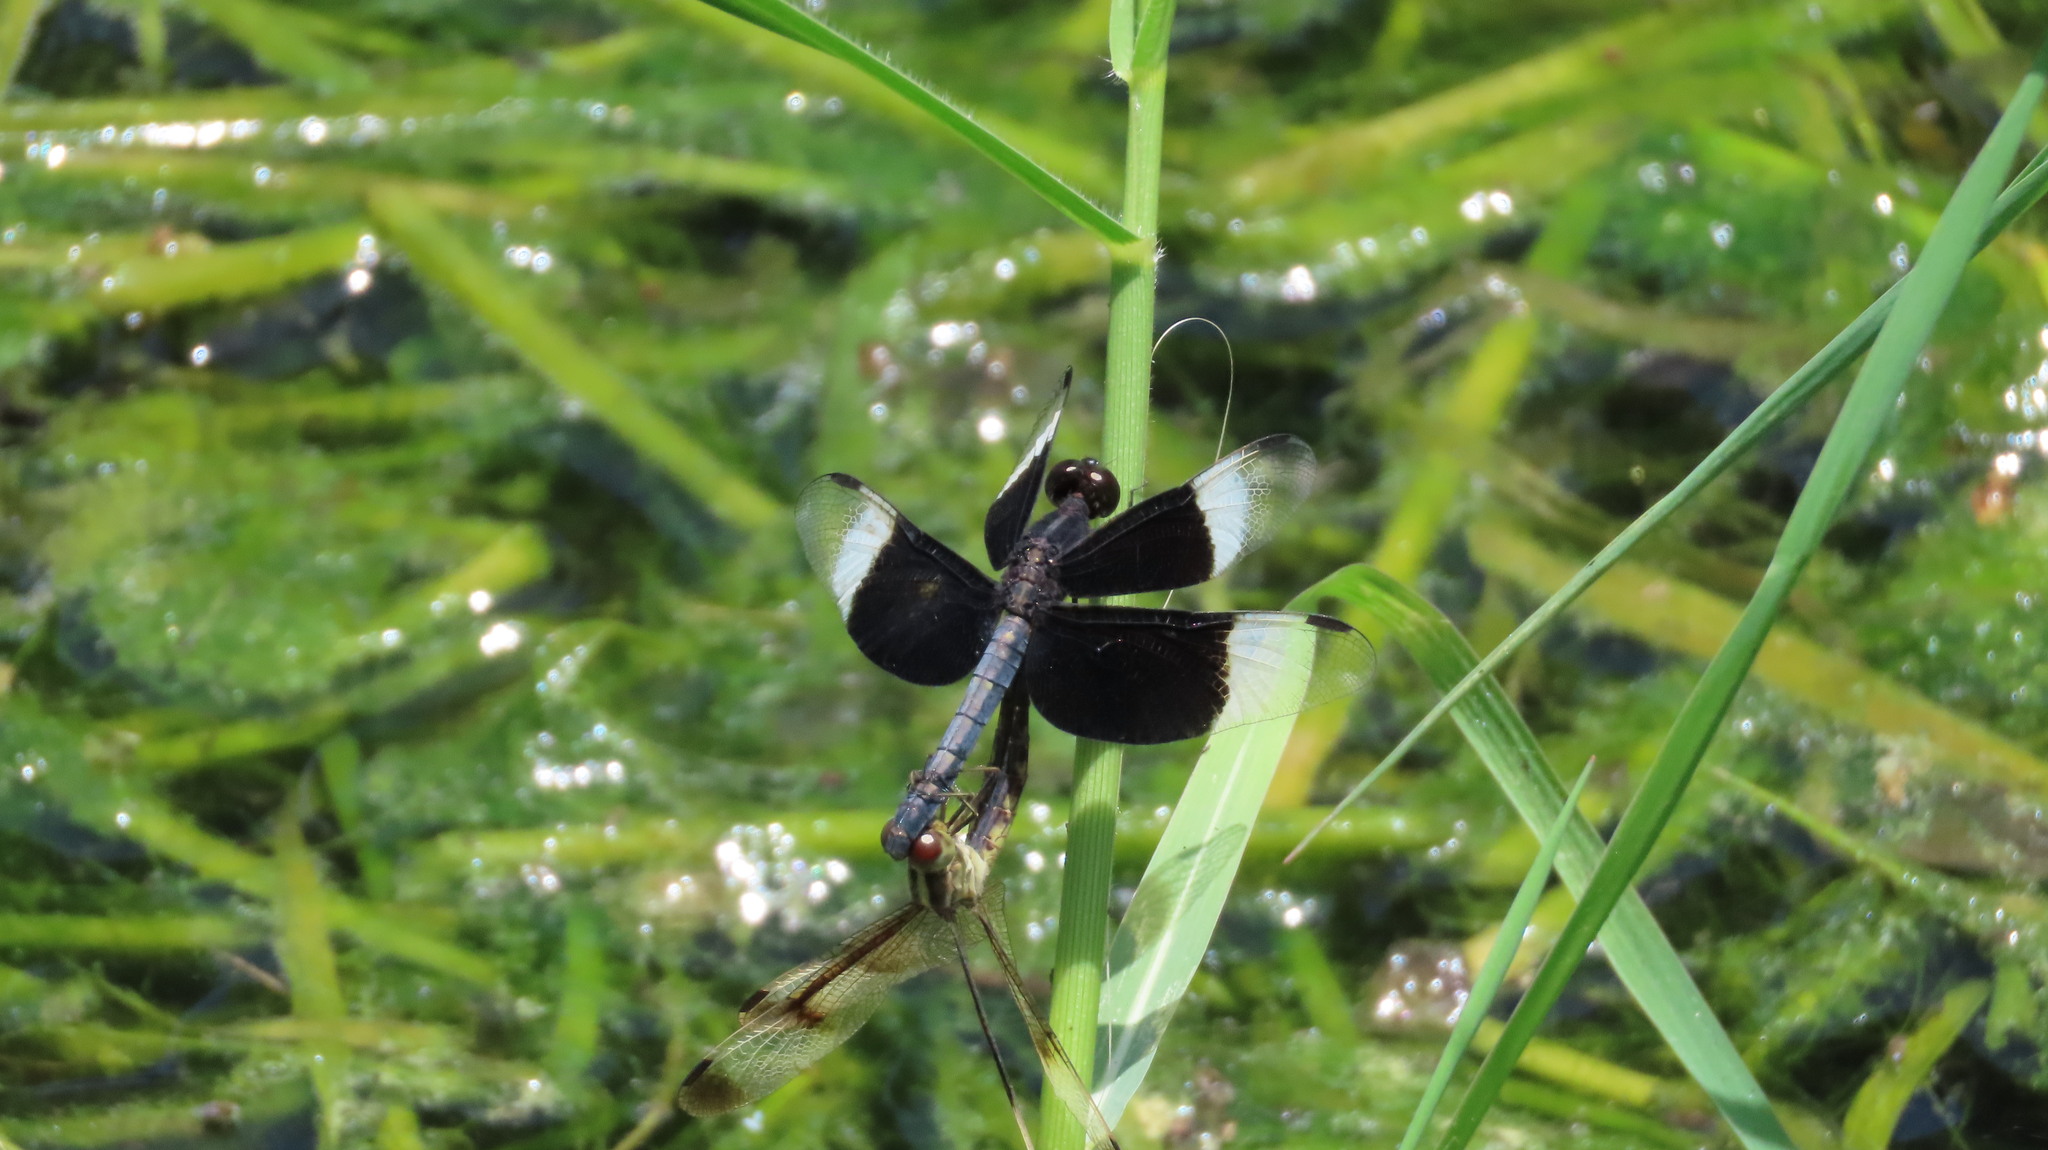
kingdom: Animalia
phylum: Arthropoda
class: Insecta
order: Odonata
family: Libellulidae
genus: Neurothemis
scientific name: Neurothemis tullia
